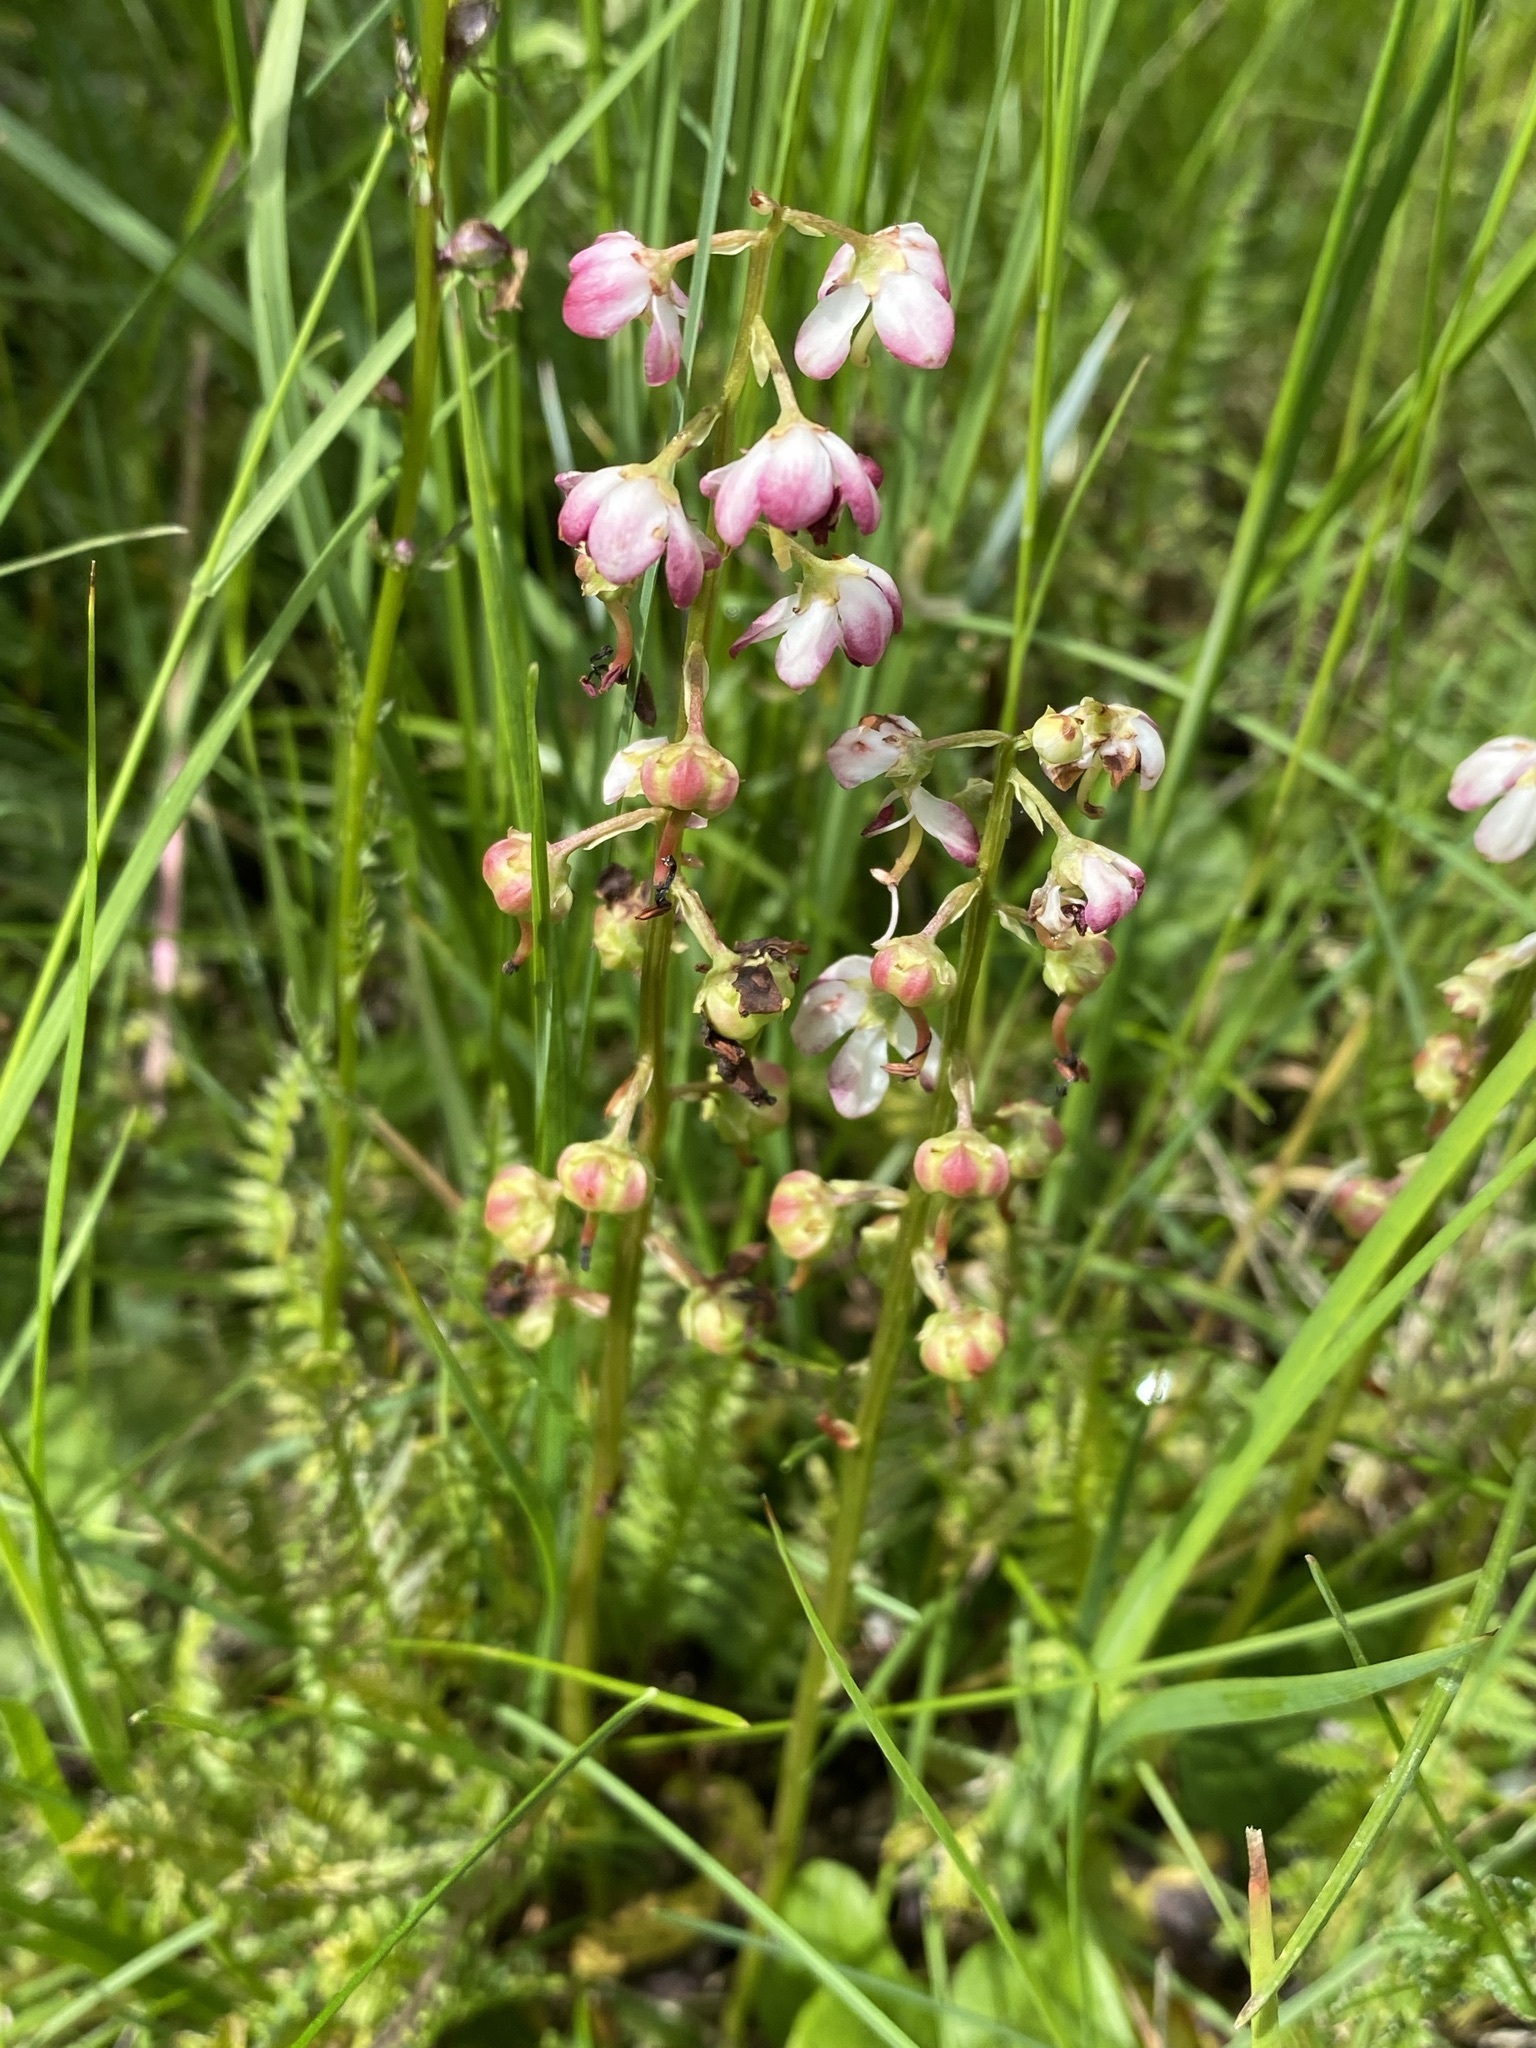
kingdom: Plantae
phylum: Tracheophyta
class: Magnoliopsida
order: Ericales
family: Ericaceae
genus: Pyrola
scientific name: Pyrola asarifolia
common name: Bog wintergreen
